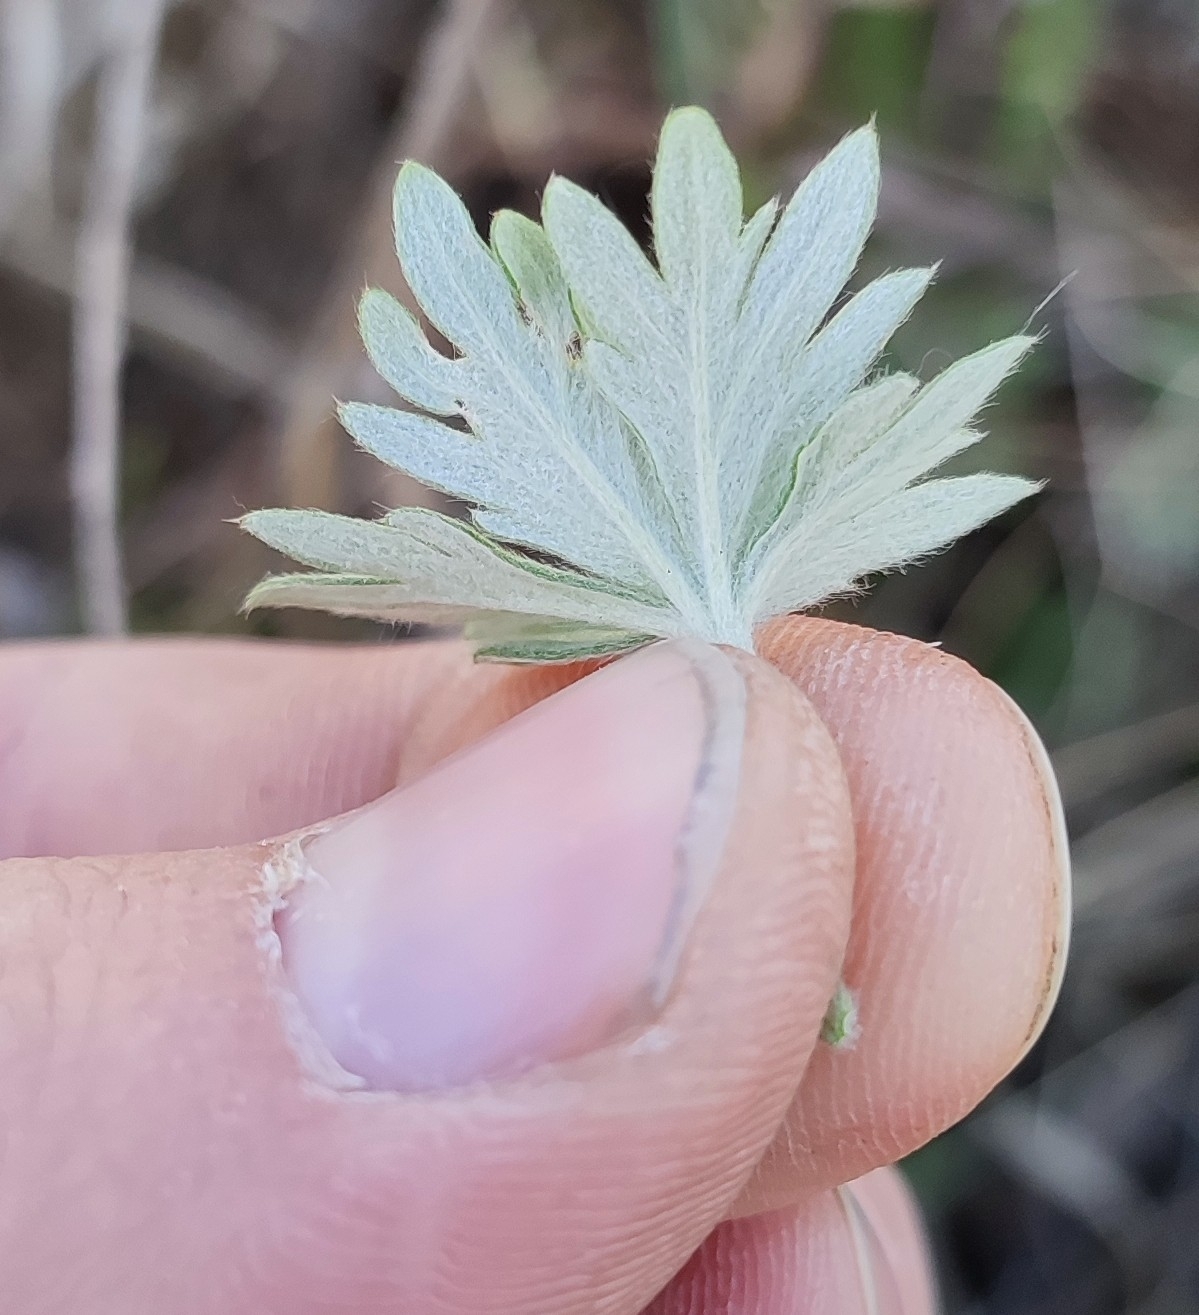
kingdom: Plantae
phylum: Tracheophyta
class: Magnoliopsida
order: Rosales
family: Rosaceae
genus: Potentilla
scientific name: Potentilla argentea
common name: Hoary cinquefoil
